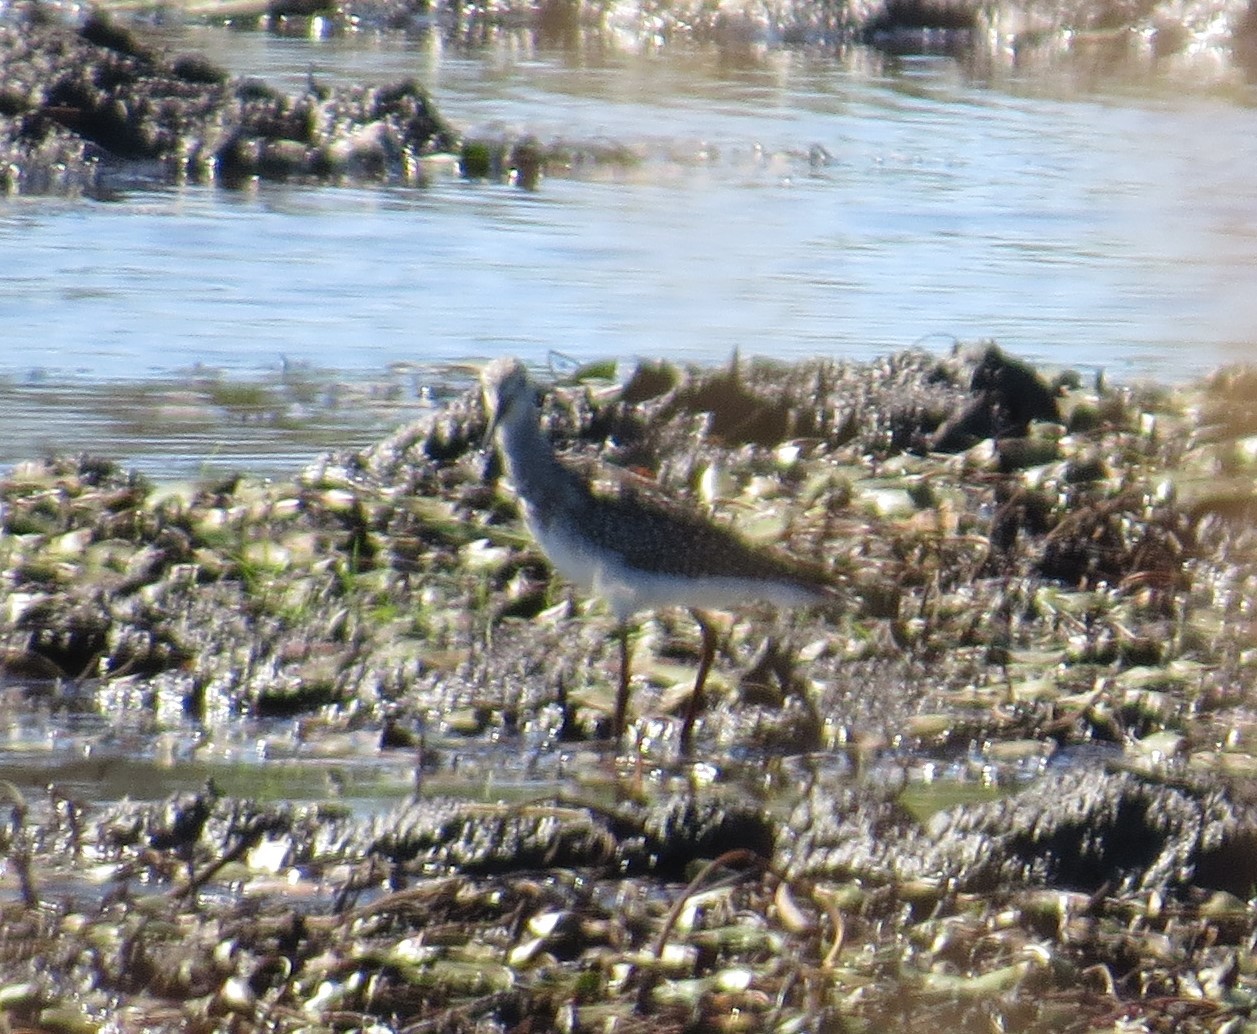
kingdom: Animalia
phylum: Chordata
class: Aves
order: Charadriiformes
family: Scolopacidae
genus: Tringa
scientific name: Tringa melanoleuca
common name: Greater yellowlegs
